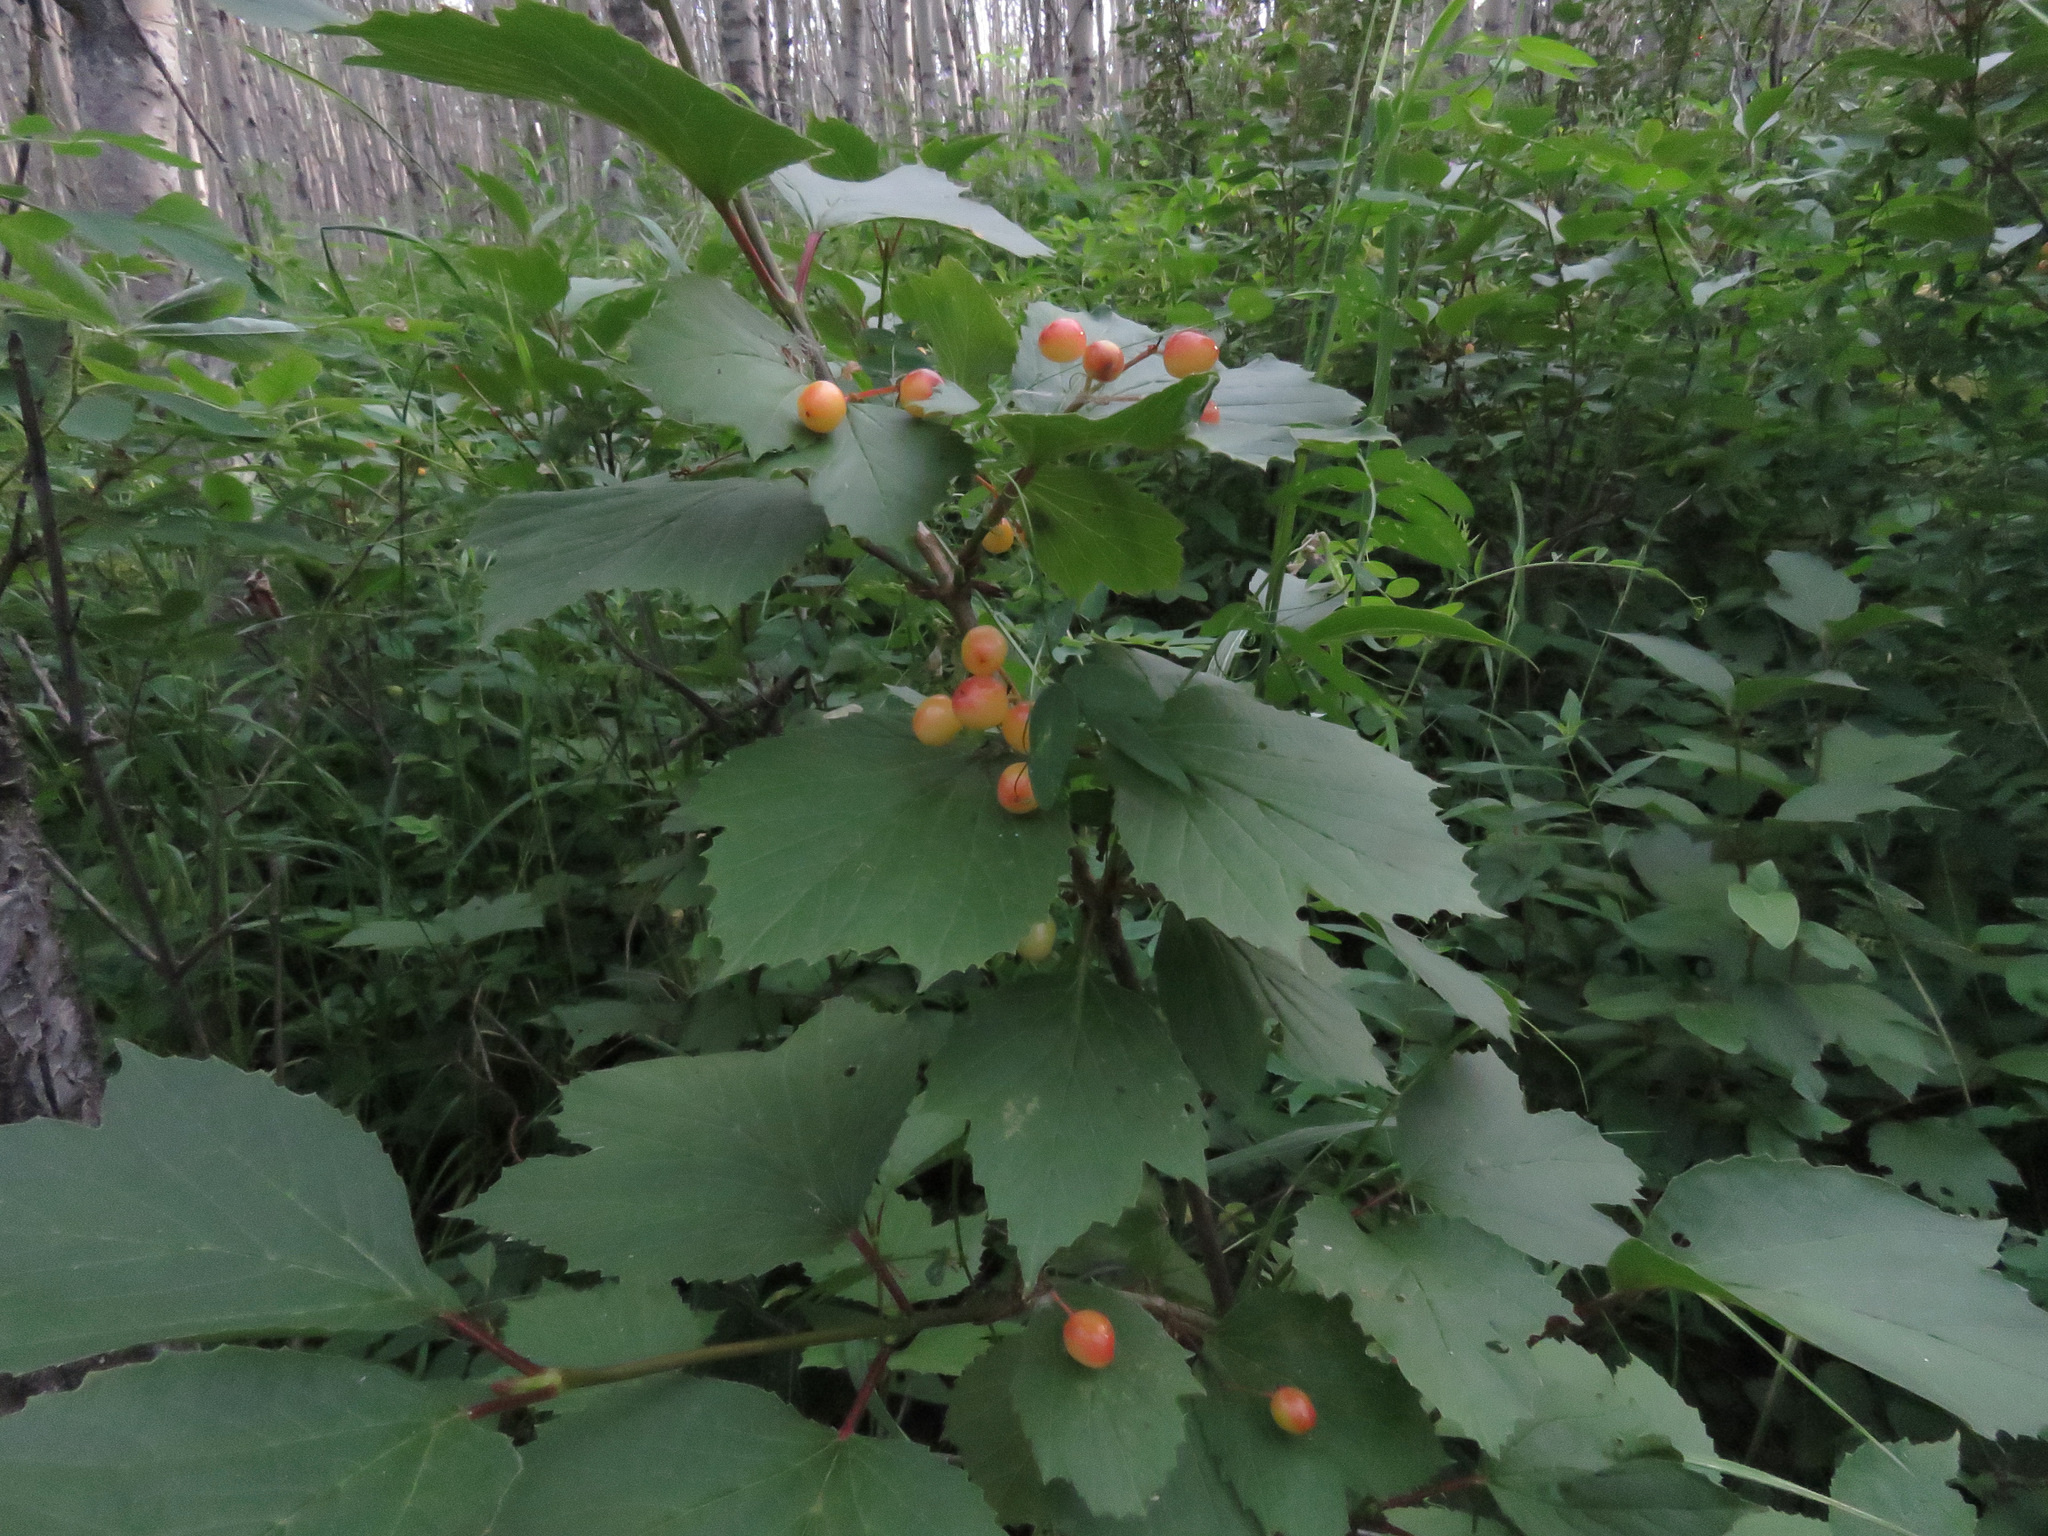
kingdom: Plantae
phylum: Tracheophyta
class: Magnoliopsida
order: Dipsacales
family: Viburnaceae
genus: Viburnum
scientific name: Viburnum edule
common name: Mooseberry
